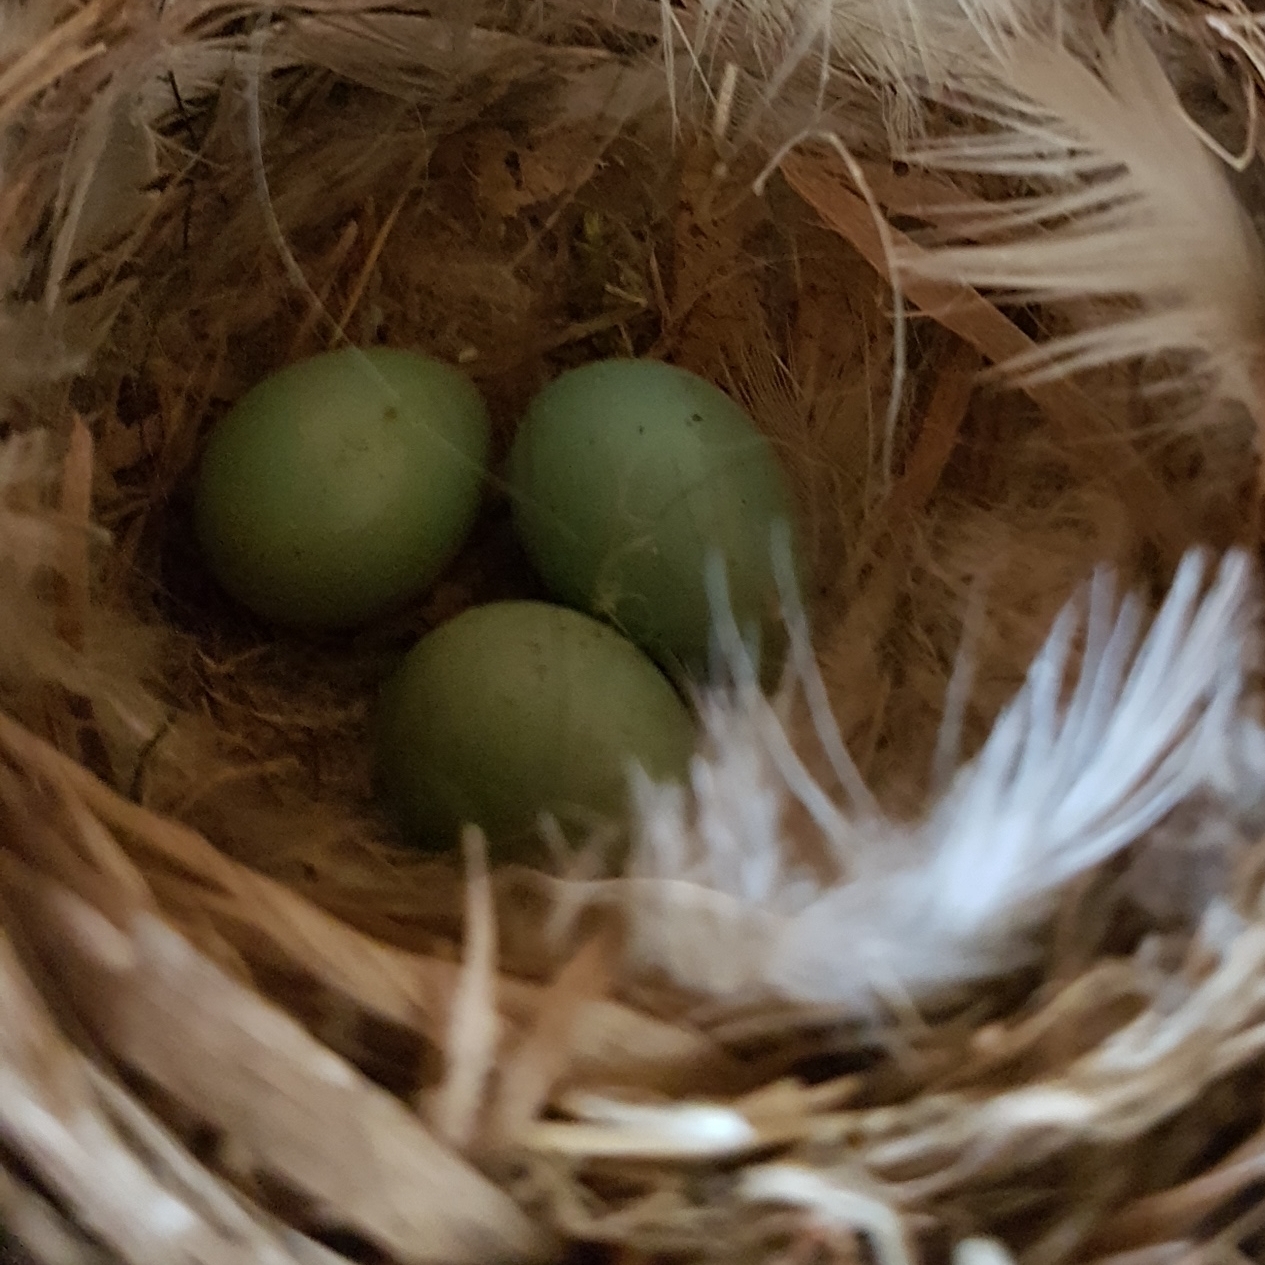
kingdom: Animalia
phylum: Chordata
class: Aves
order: Passeriformes
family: Muscicapidae
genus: Phoenicurus
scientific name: Phoenicurus phoenicurus
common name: Common redstart
